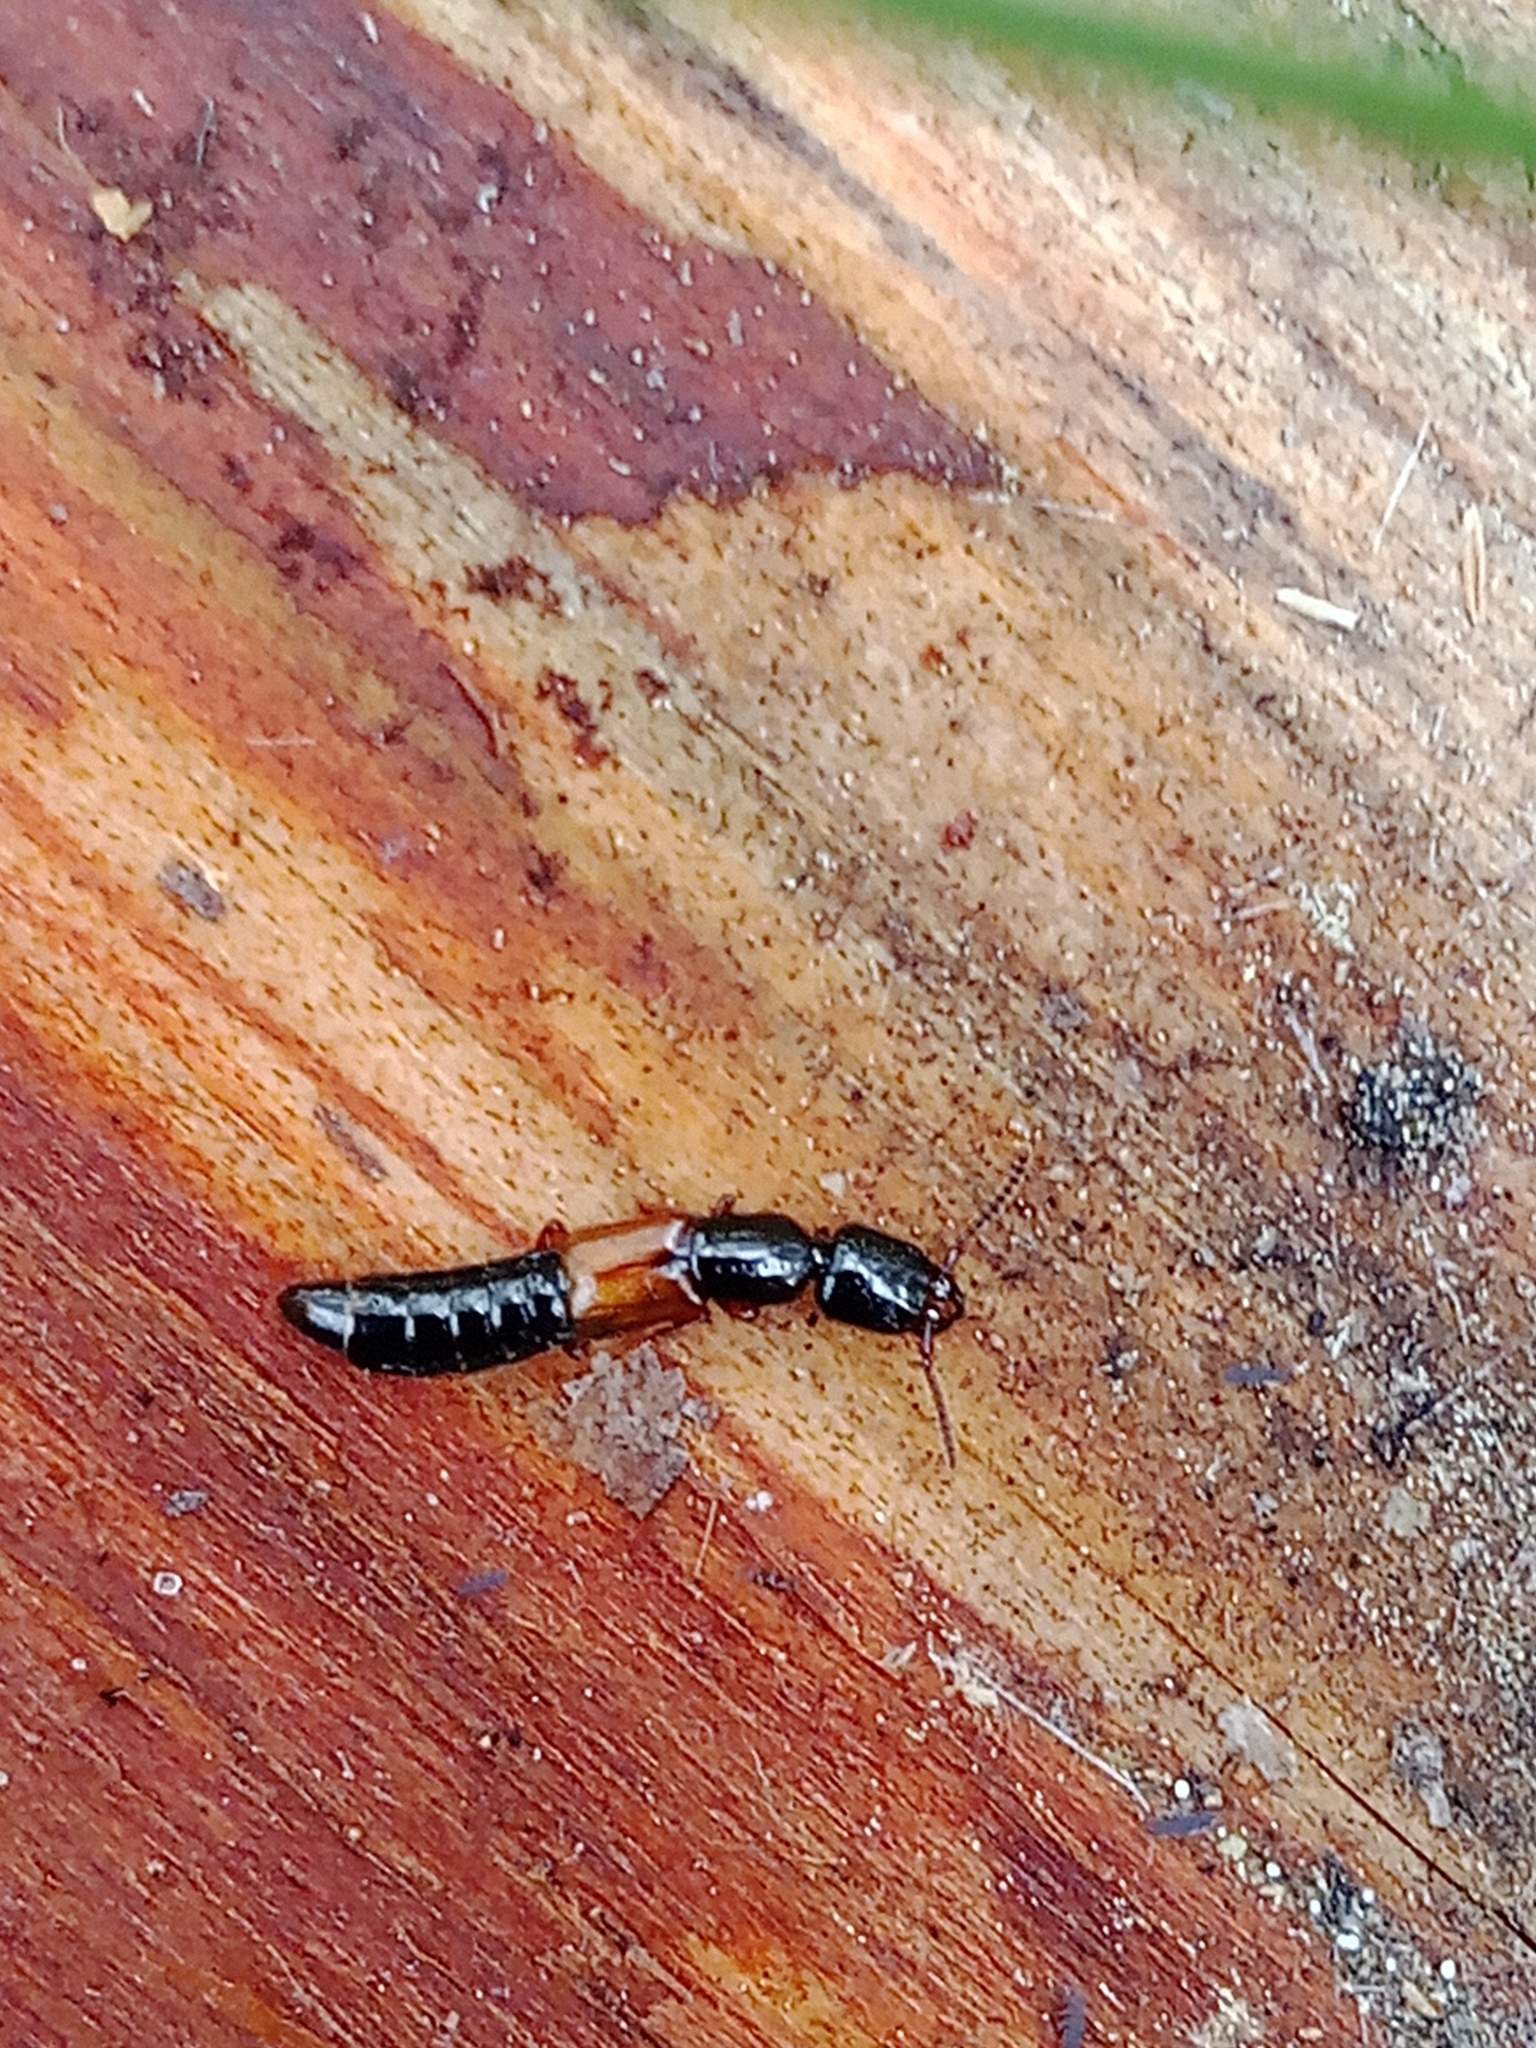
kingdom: Animalia
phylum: Arthropoda
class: Insecta
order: Coleoptera
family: Staphylinidae
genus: Nudobius
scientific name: Nudobius lentus
